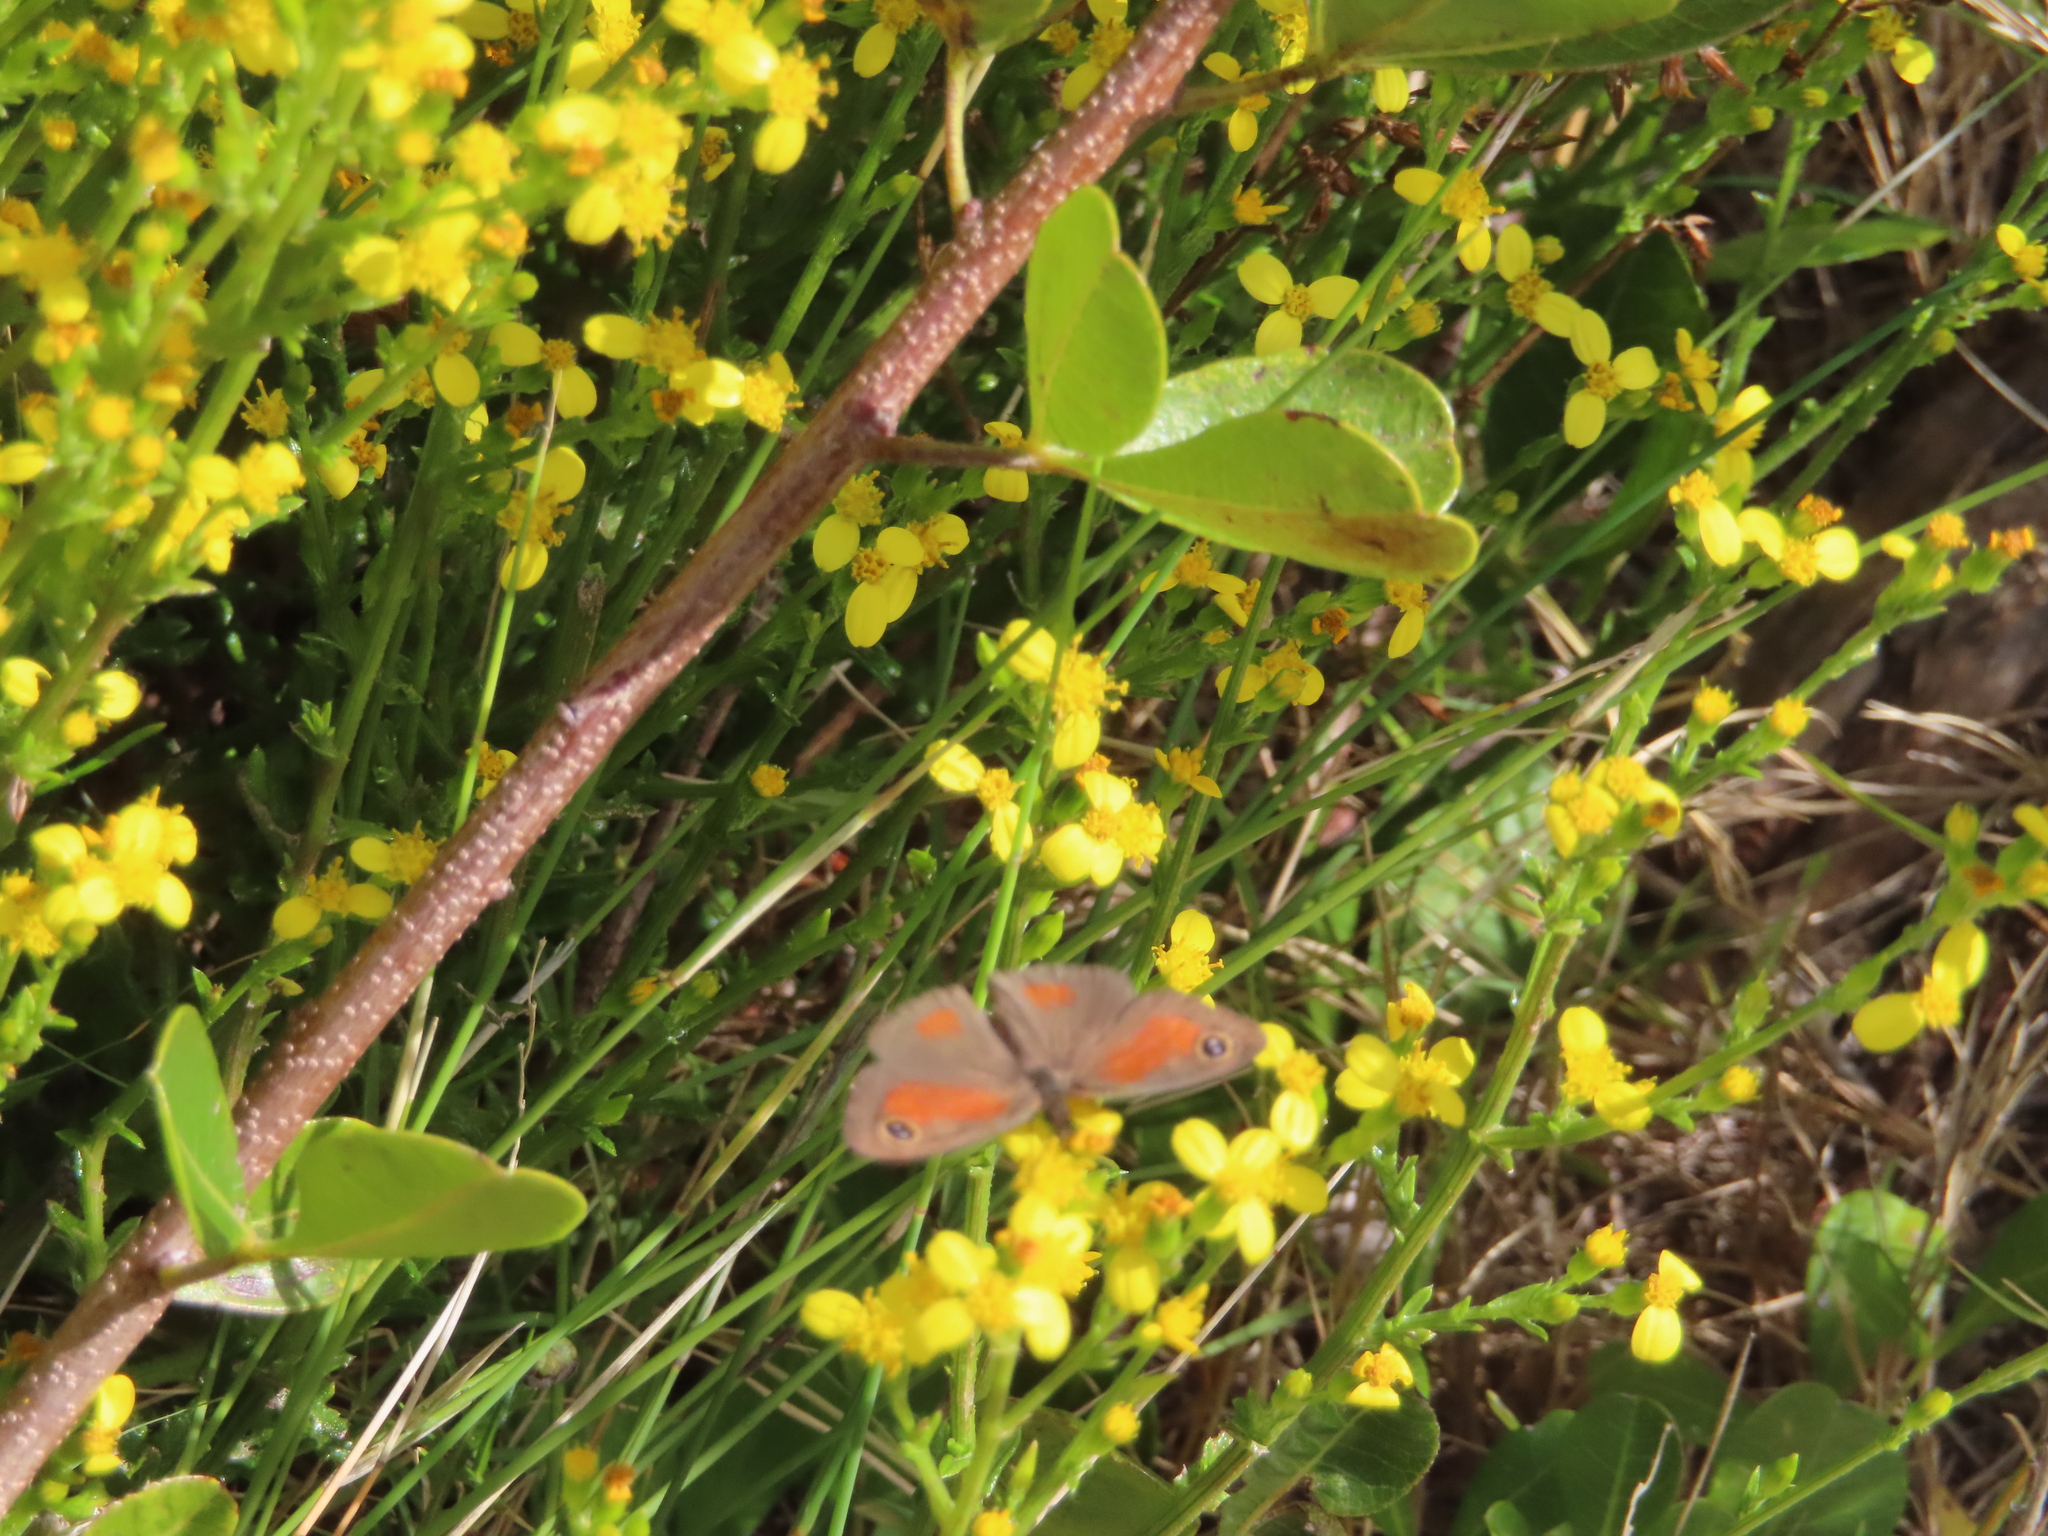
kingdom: Animalia
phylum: Arthropoda
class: Insecta
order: Lepidoptera
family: Nymphalidae
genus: Pseudonympha
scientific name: Pseudonympha detecta
